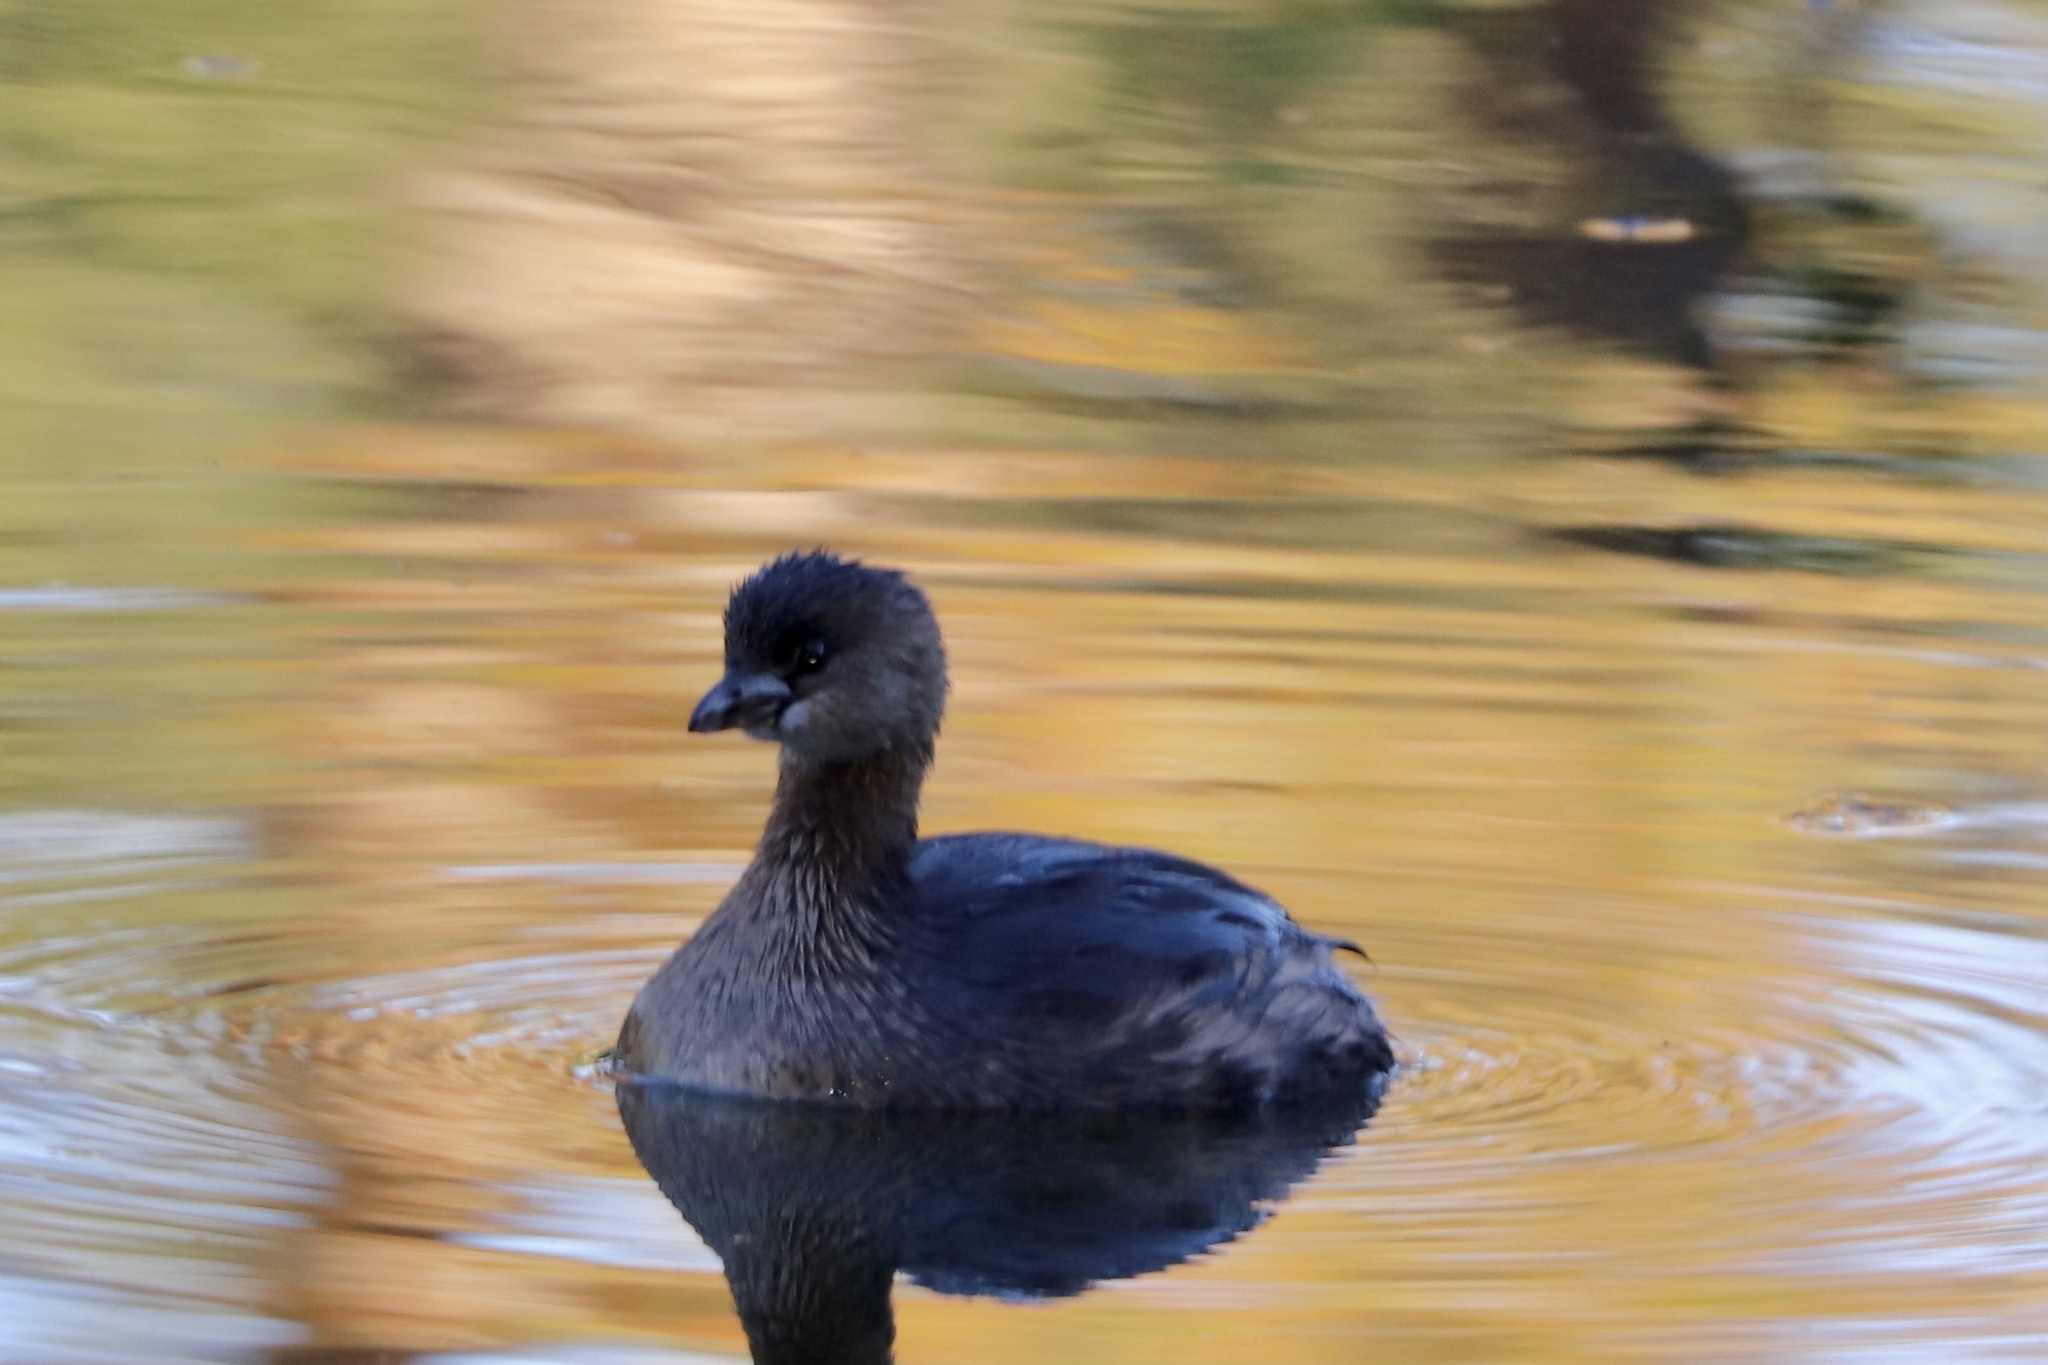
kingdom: Animalia
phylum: Chordata
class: Aves
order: Podicipediformes
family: Podicipedidae
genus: Podilymbus
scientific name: Podilymbus podiceps
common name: Pied-billed grebe
